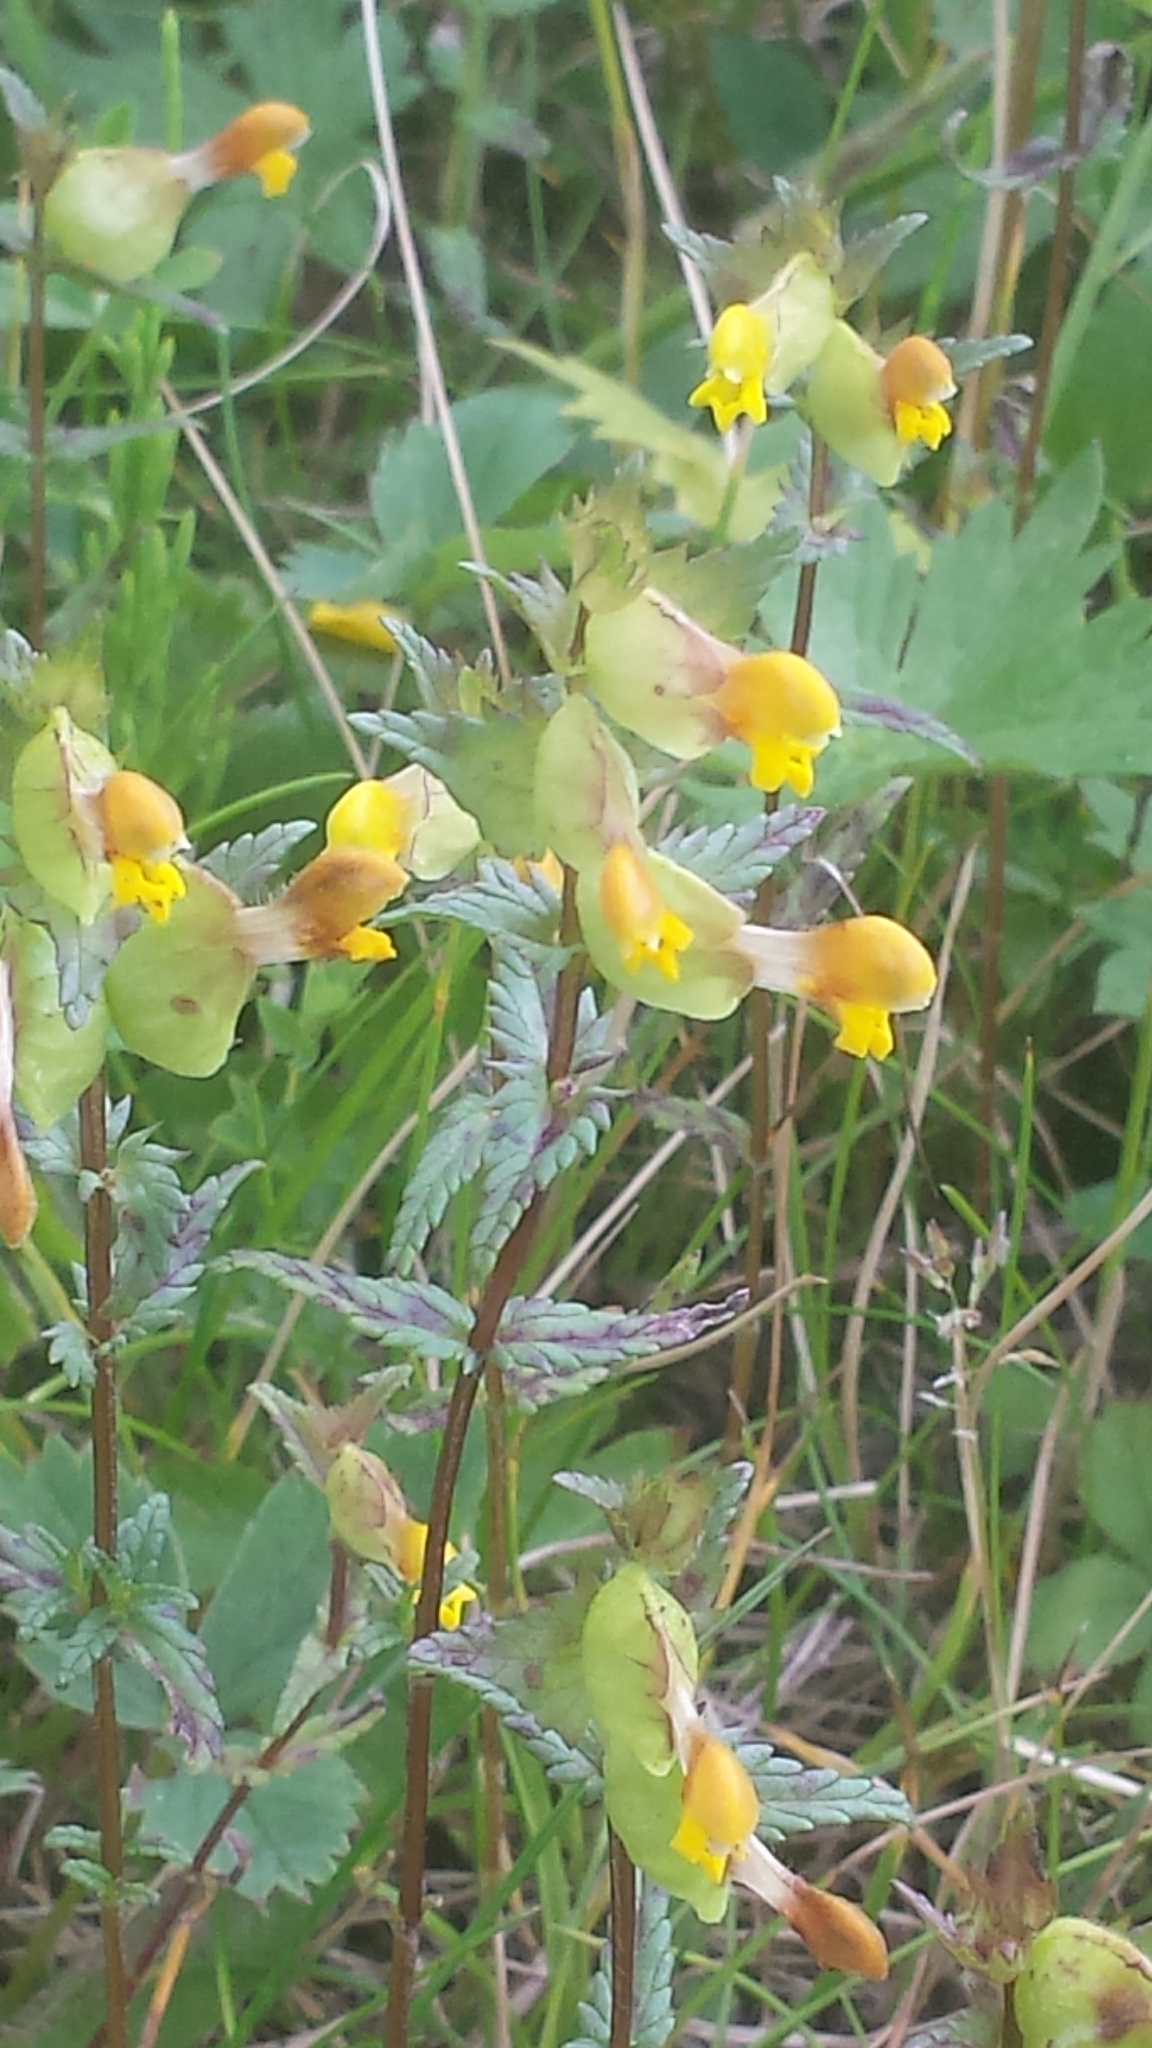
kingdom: Plantae
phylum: Tracheophyta
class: Magnoliopsida
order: Lamiales
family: Orobanchaceae
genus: Rhinanthus
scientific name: Rhinanthus minor
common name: Yellow-rattle
